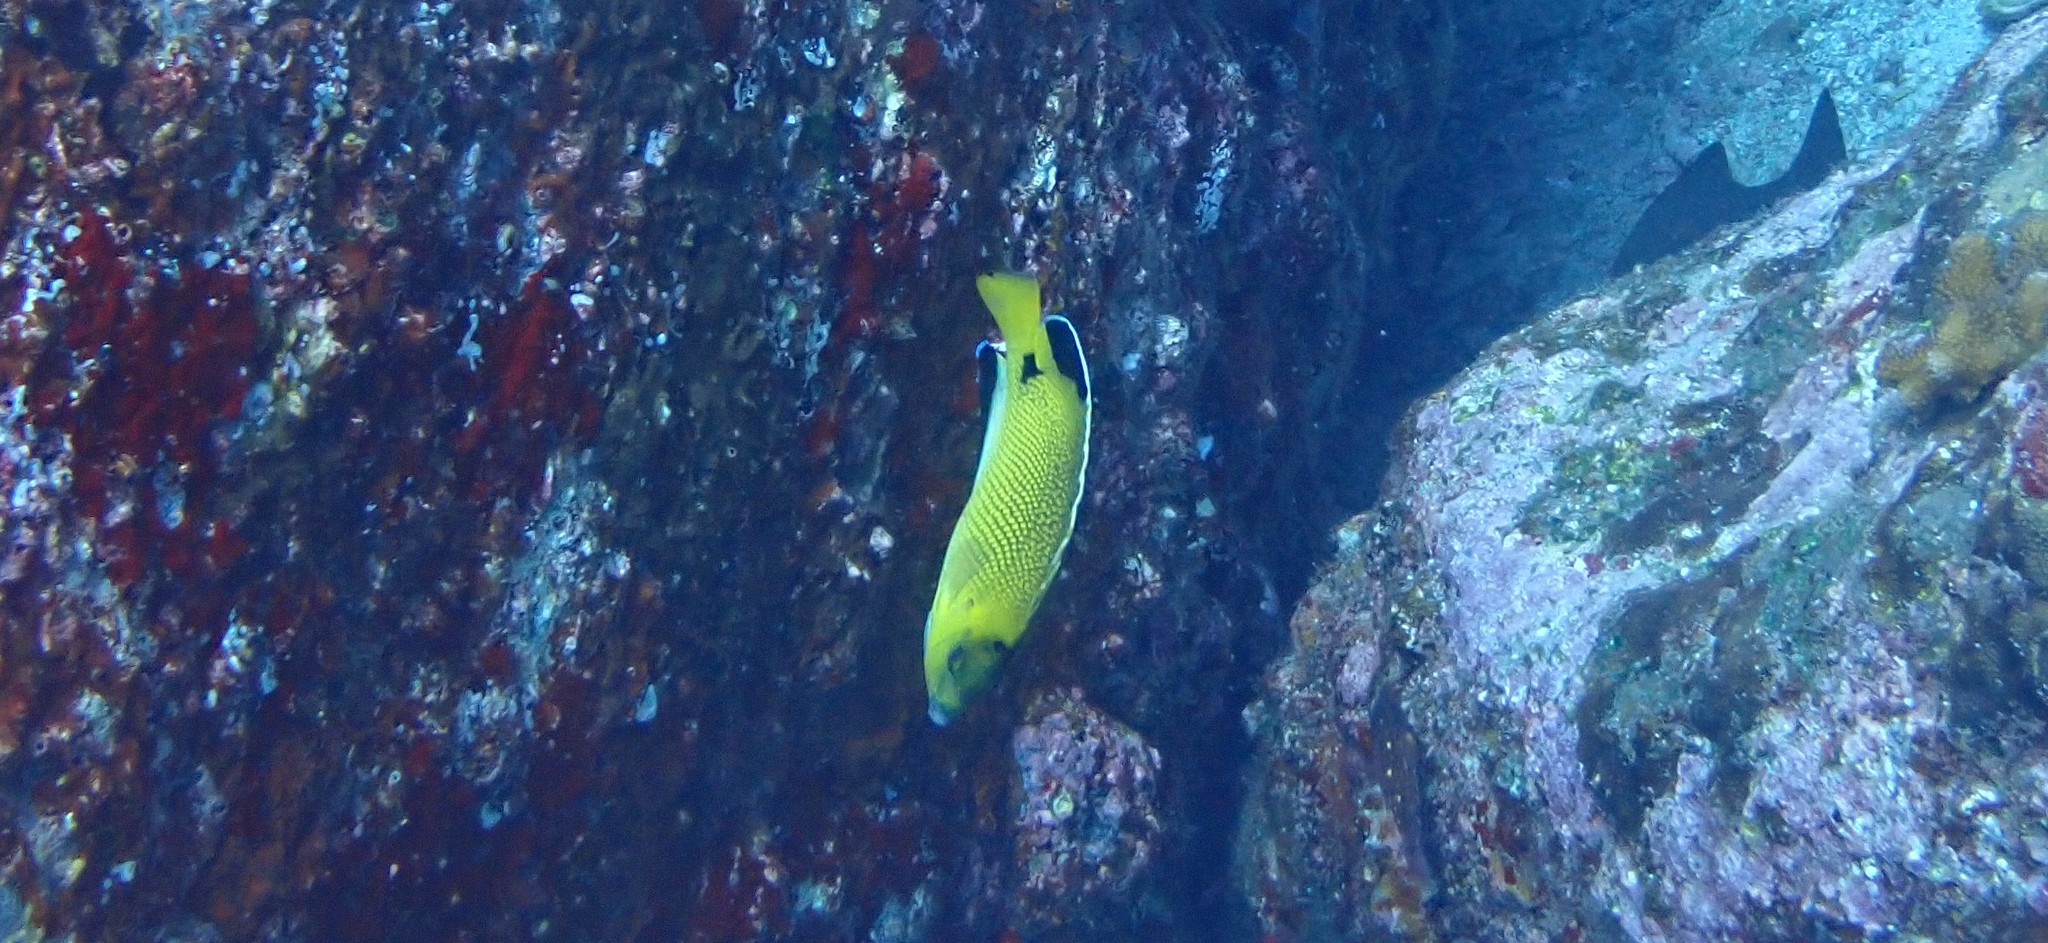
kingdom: Animalia
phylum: Chordata
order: Perciformes
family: Pomacanthidae
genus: Apolemichthys
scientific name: Apolemichthys
